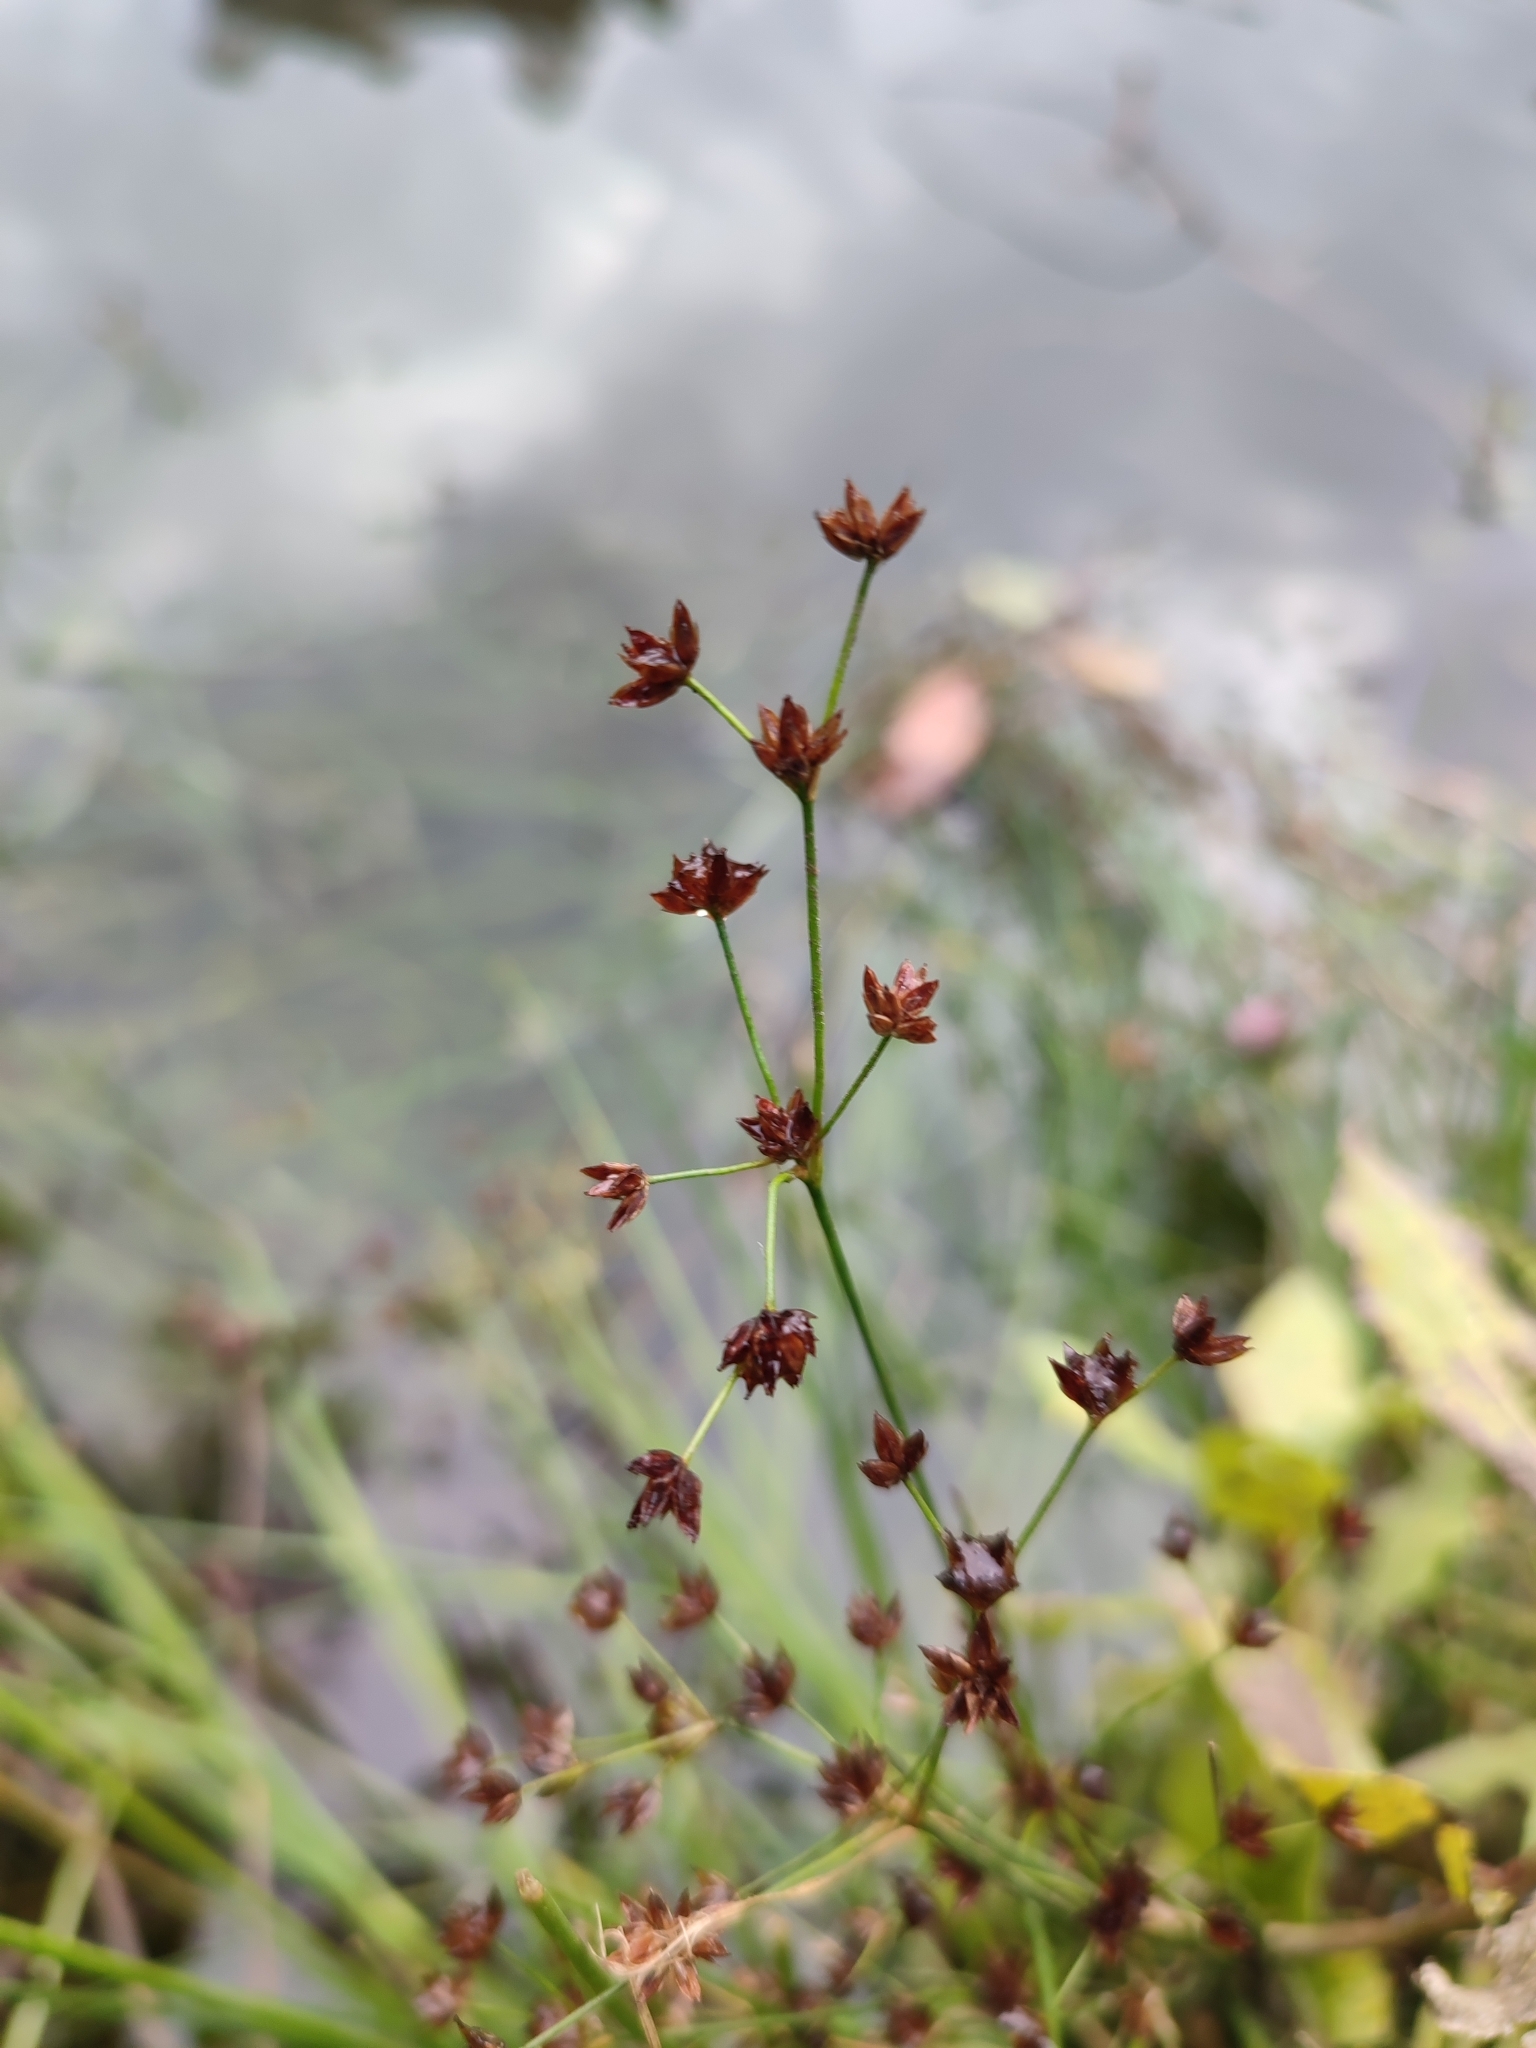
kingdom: Plantae
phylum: Tracheophyta
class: Liliopsida
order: Poales
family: Juncaceae
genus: Juncus
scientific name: Juncus articulatus
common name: Jointed rush
